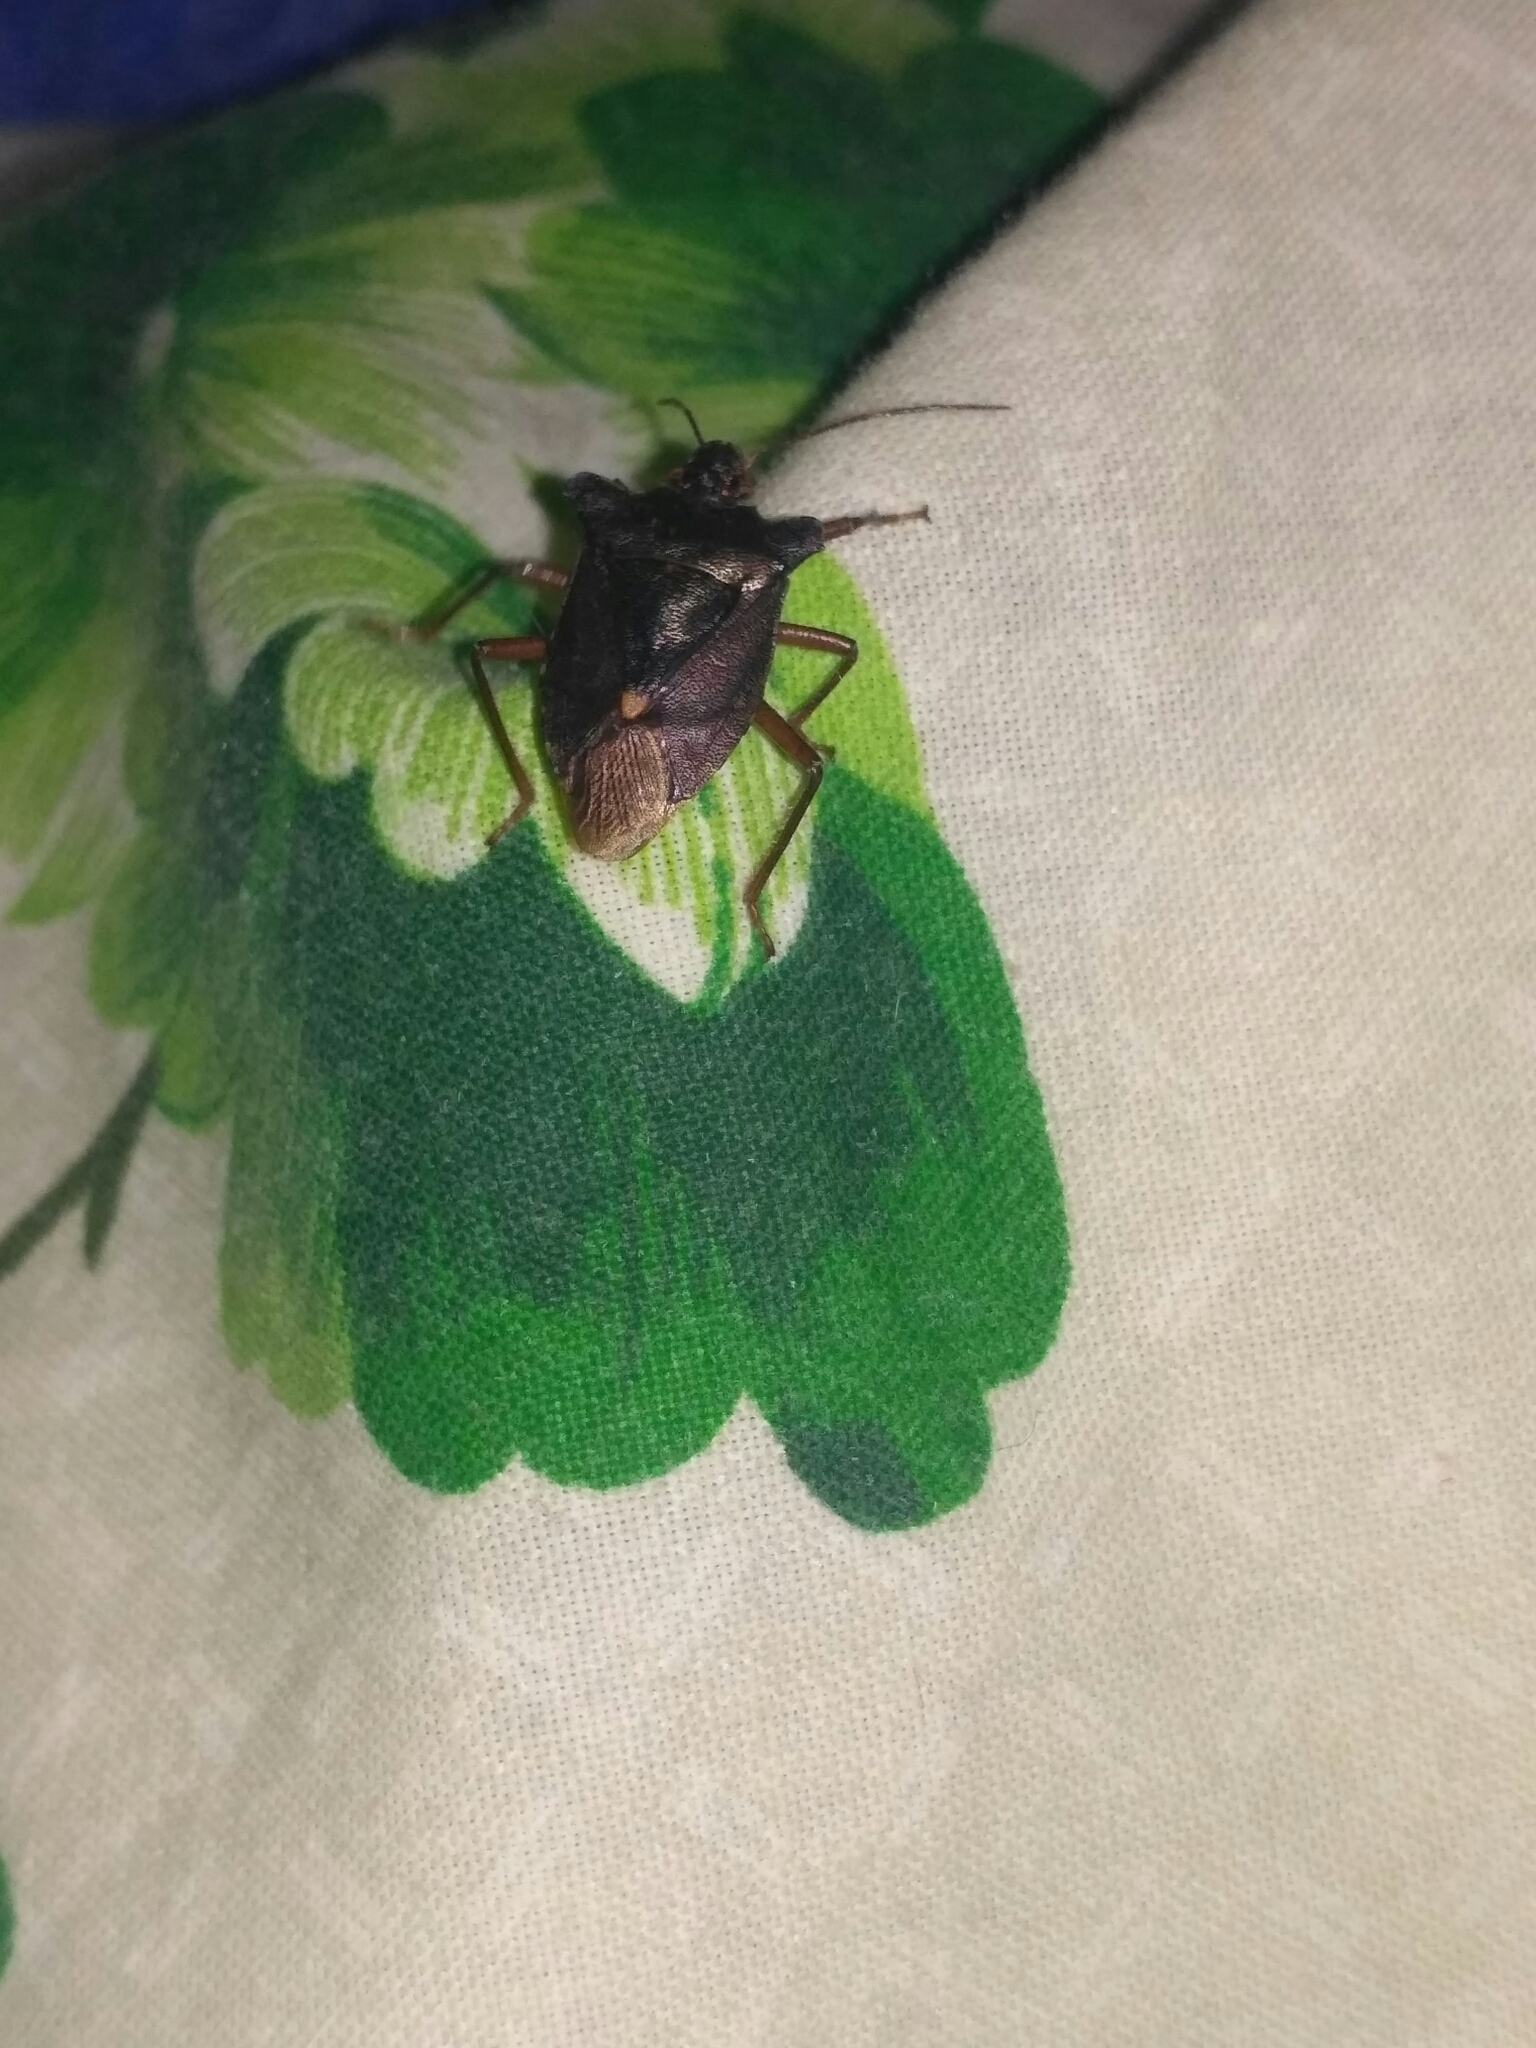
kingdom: Animalia
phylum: Arthropoda
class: Insecta
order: Hemiptera
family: Pentatomidae
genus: Pentatoma
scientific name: Pentatoma rufipes
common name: Forest bug
